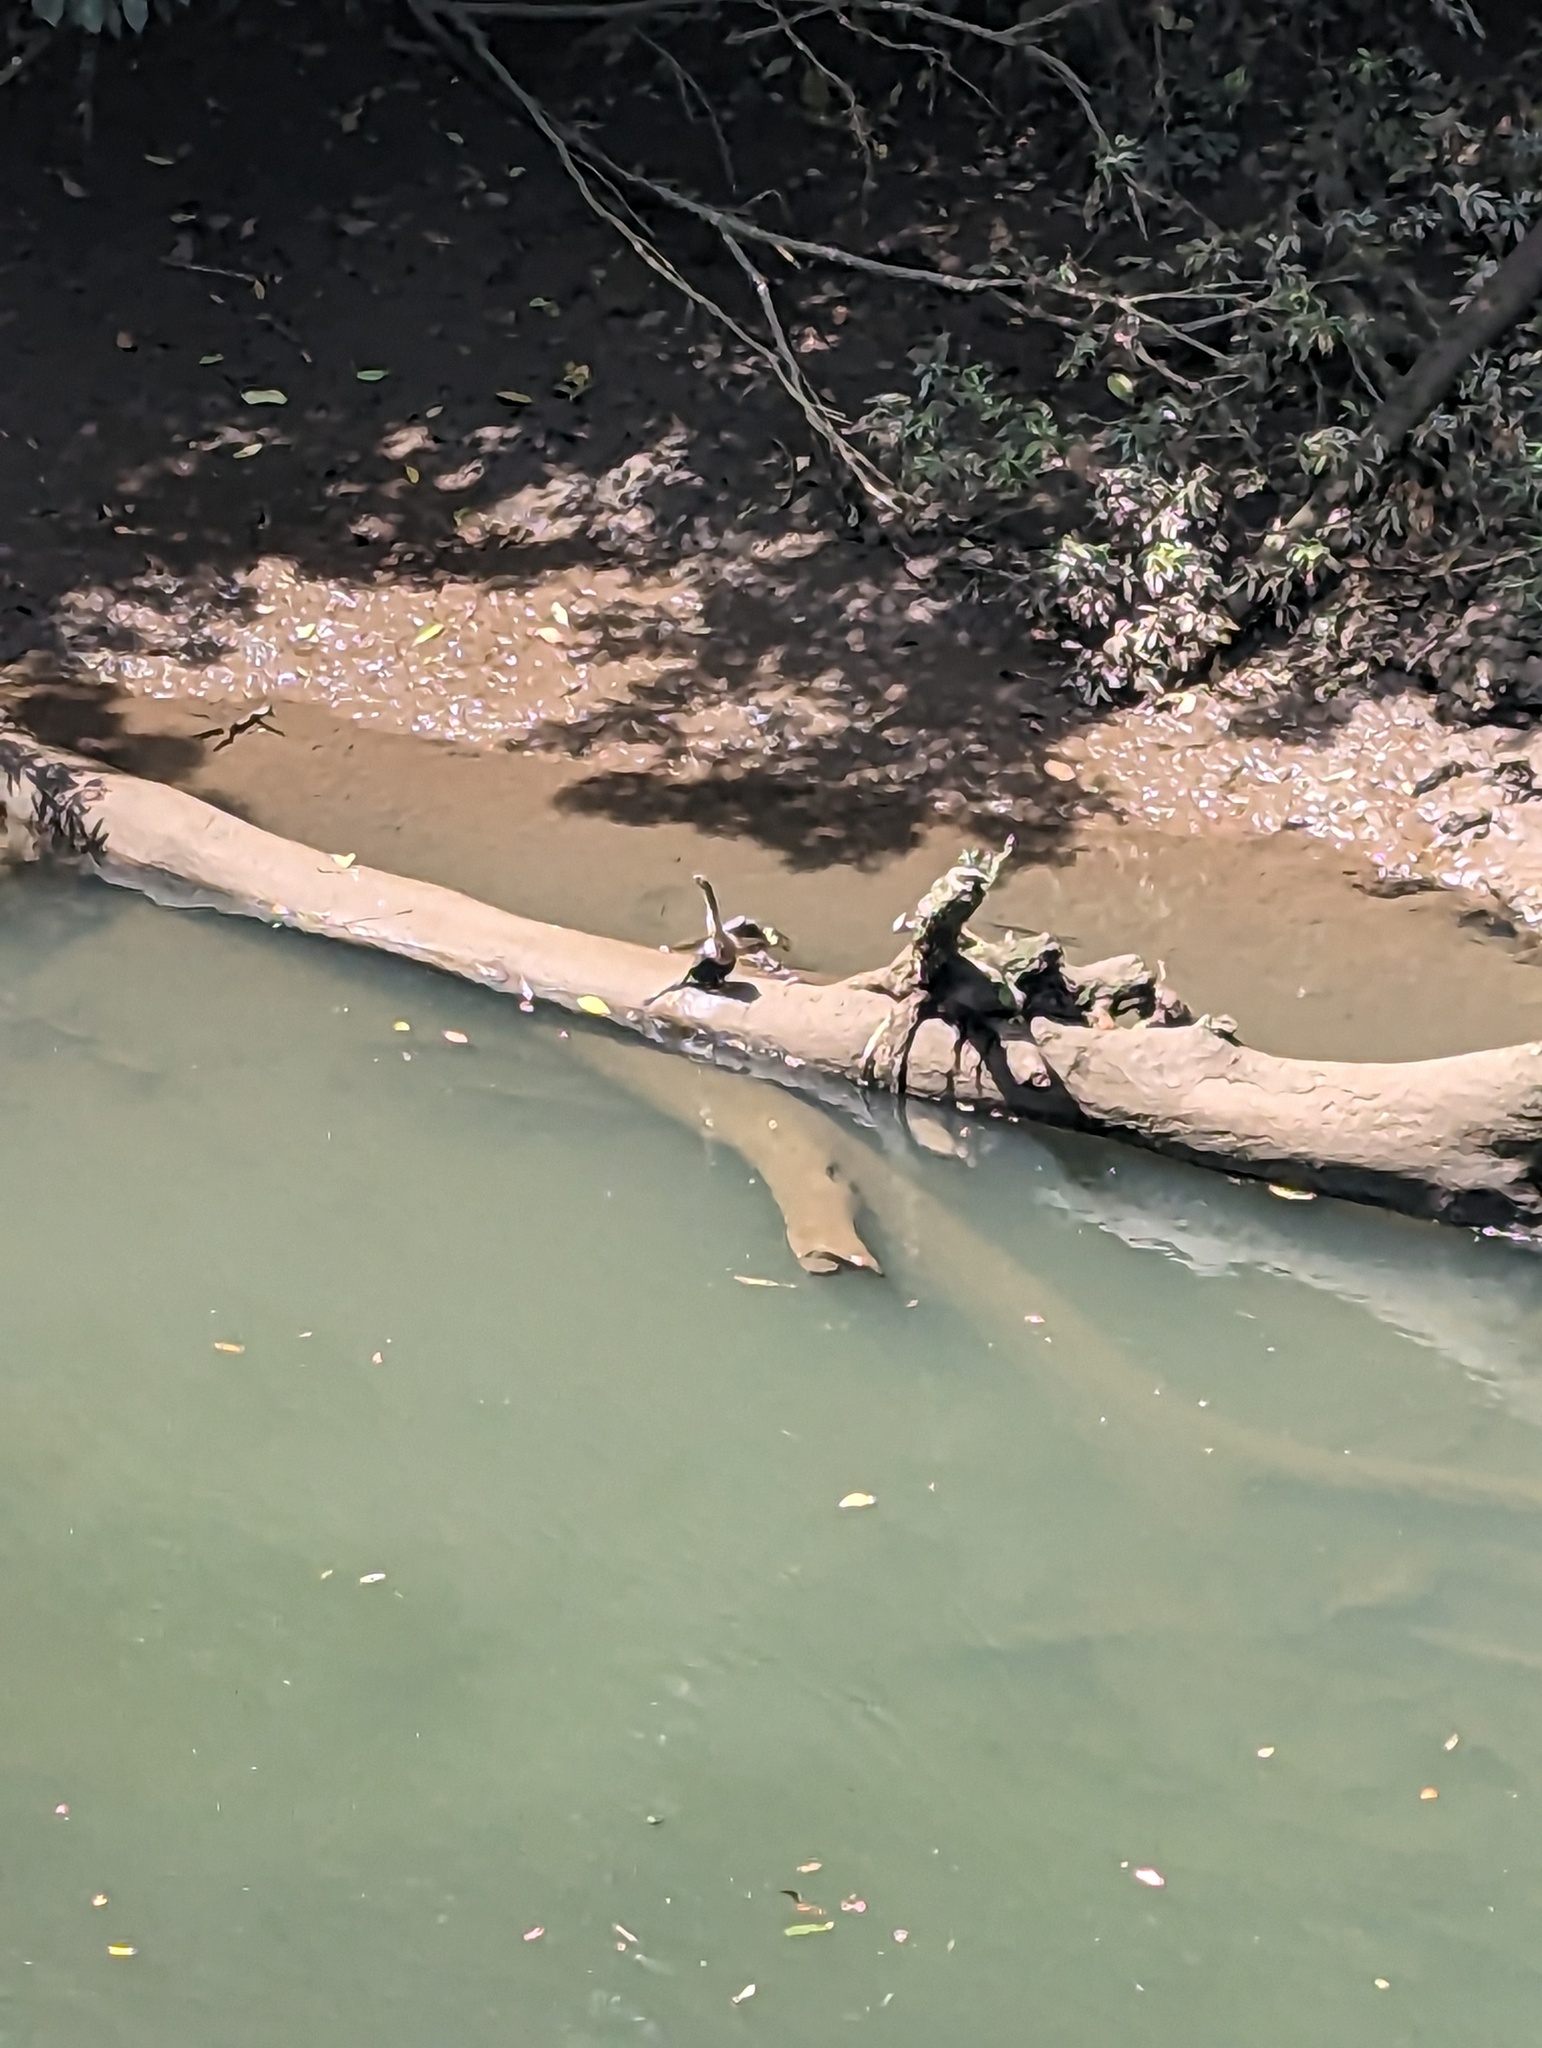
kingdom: Animalia
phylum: Chordata
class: Aves
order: Suliformes
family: Anhingidae
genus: Anhinga
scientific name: Anhinga anhinga
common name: Anhinga
